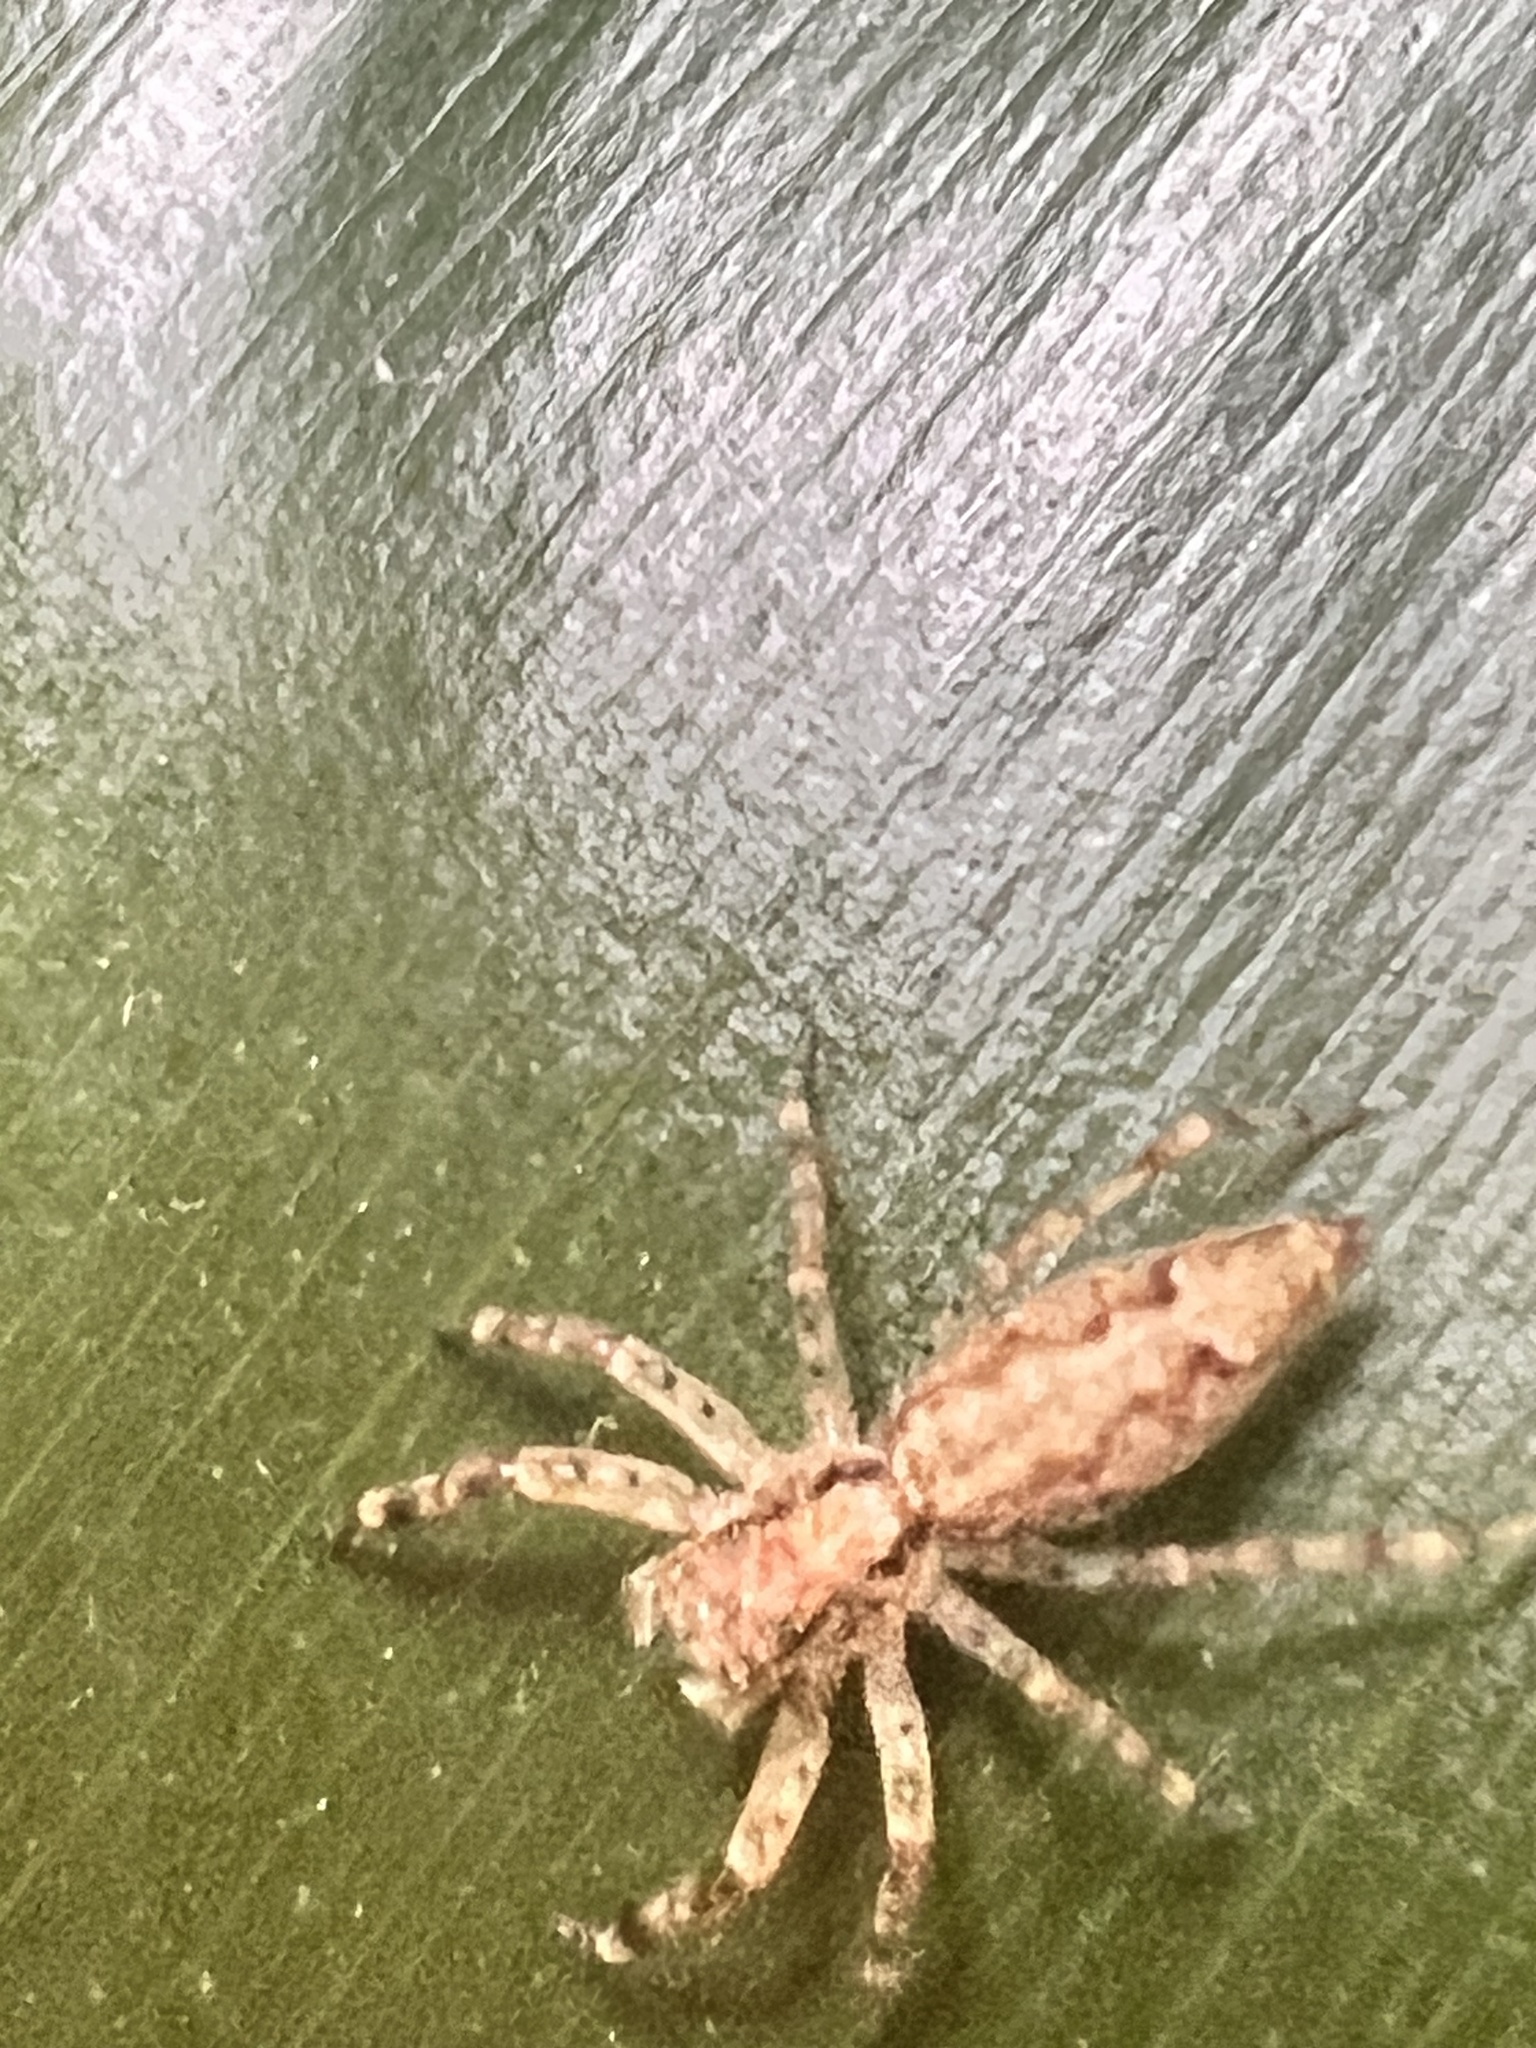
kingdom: Animalia
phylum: Arthropoda
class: Arachnida
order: Araneae
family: Salticidae
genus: Helpis
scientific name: Helpis minitabunda
